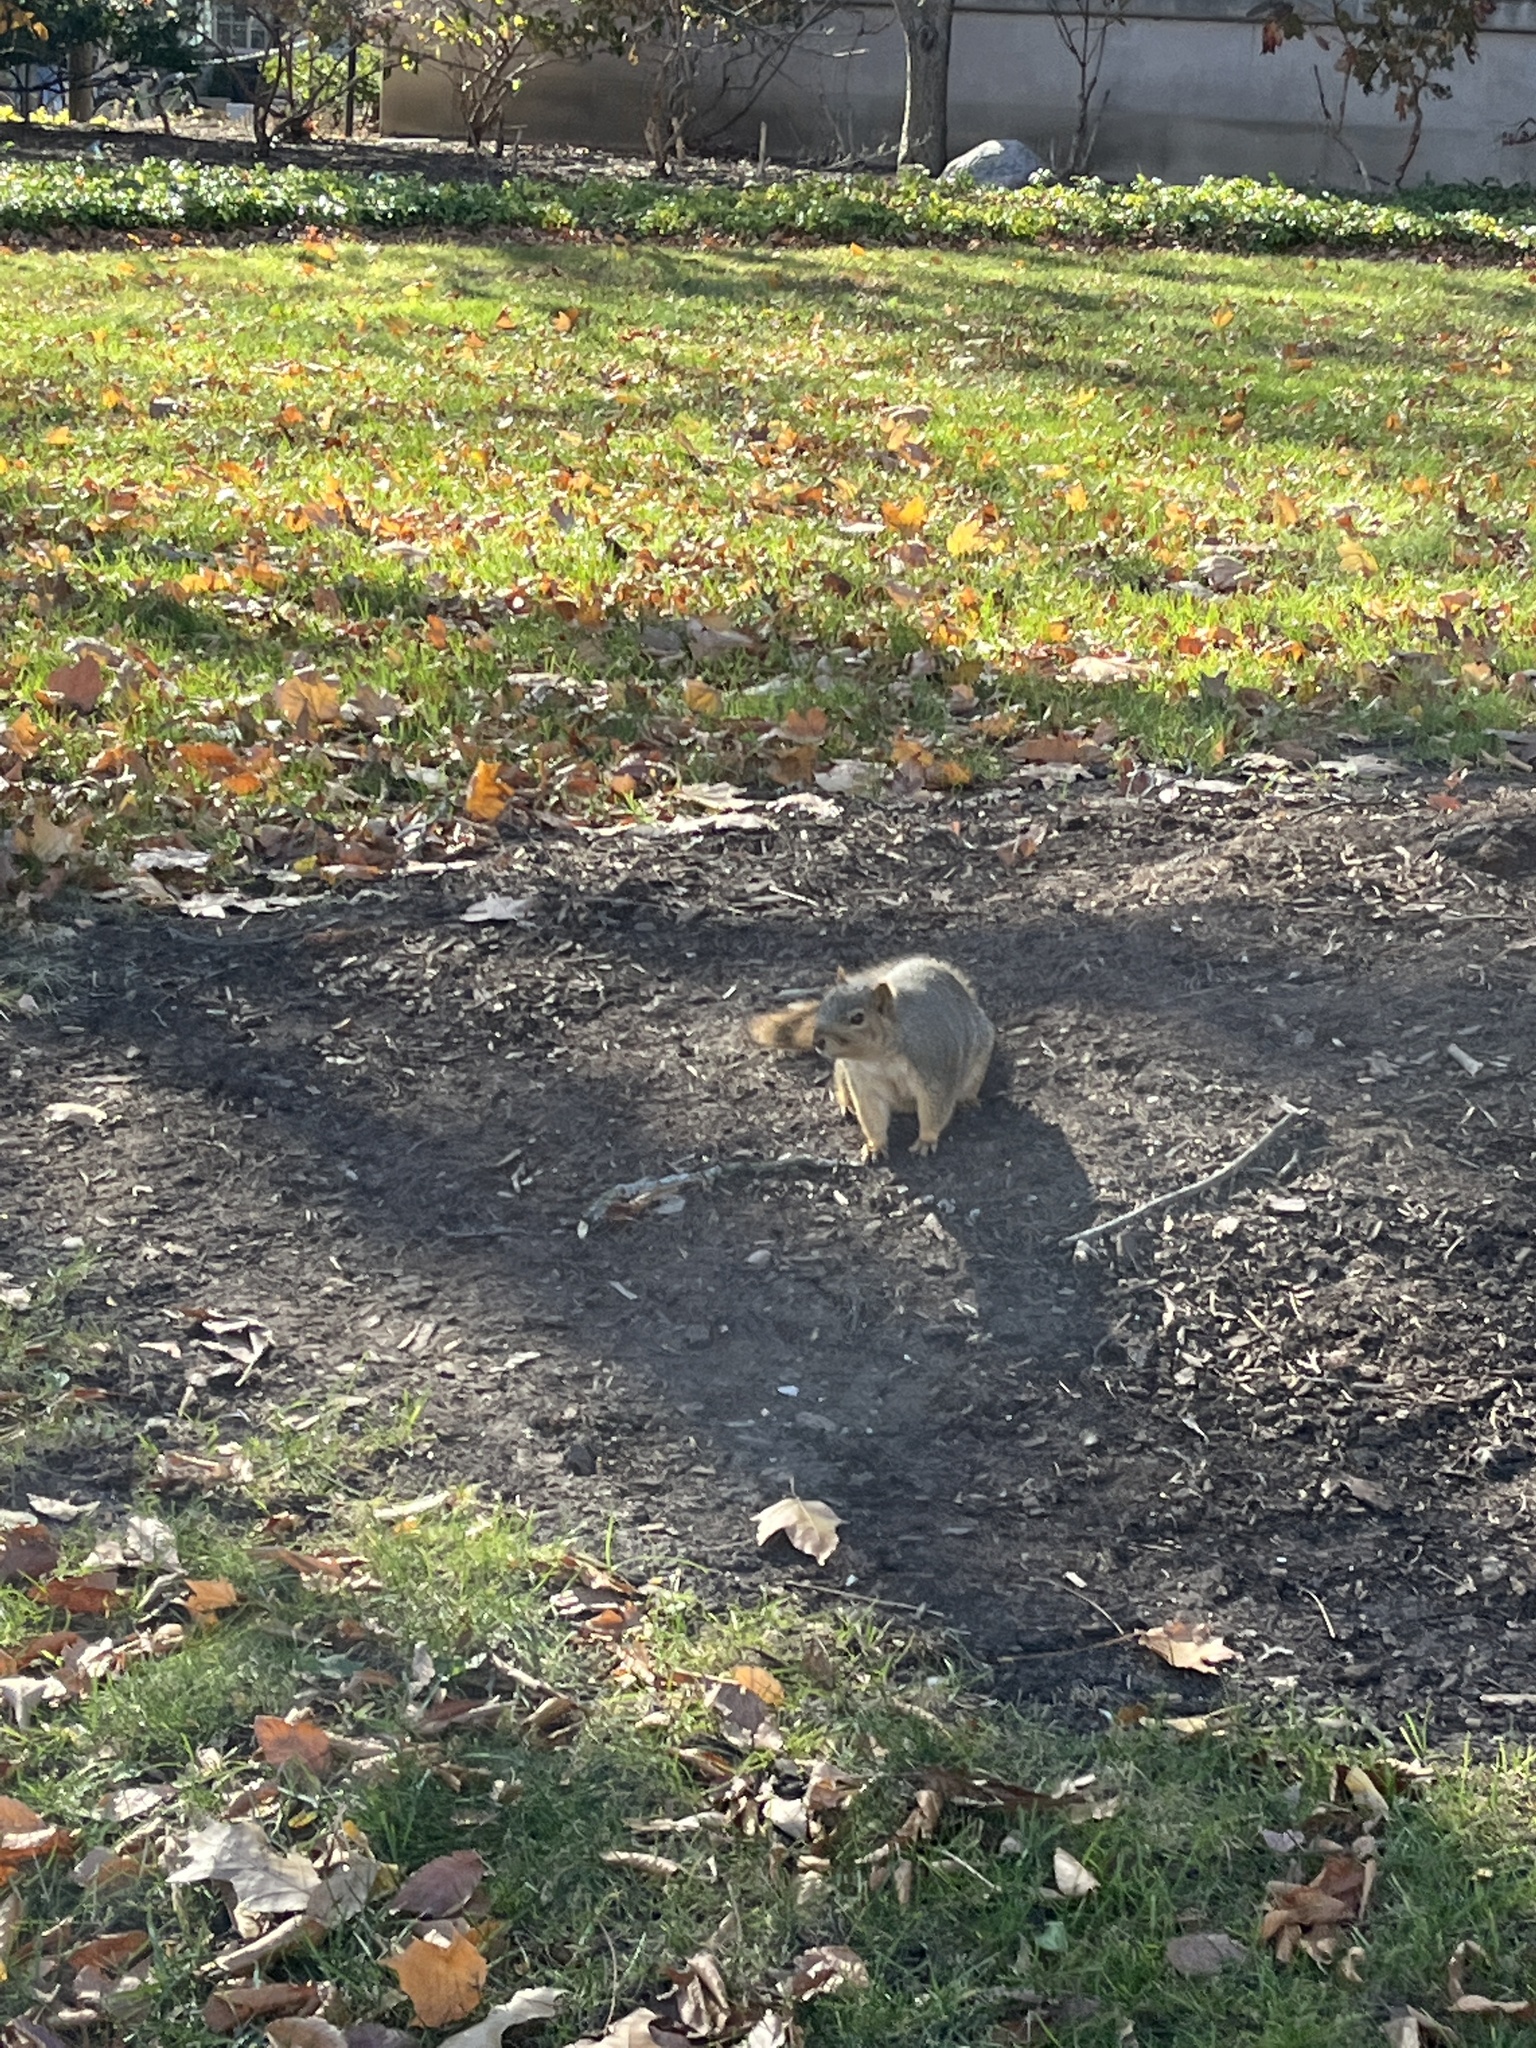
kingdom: Animalia
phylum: Chordata
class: Mammalia
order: Rodentia
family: Sciuridae
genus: Sciurus
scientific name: Sciurus niger
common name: Fox squirrel
